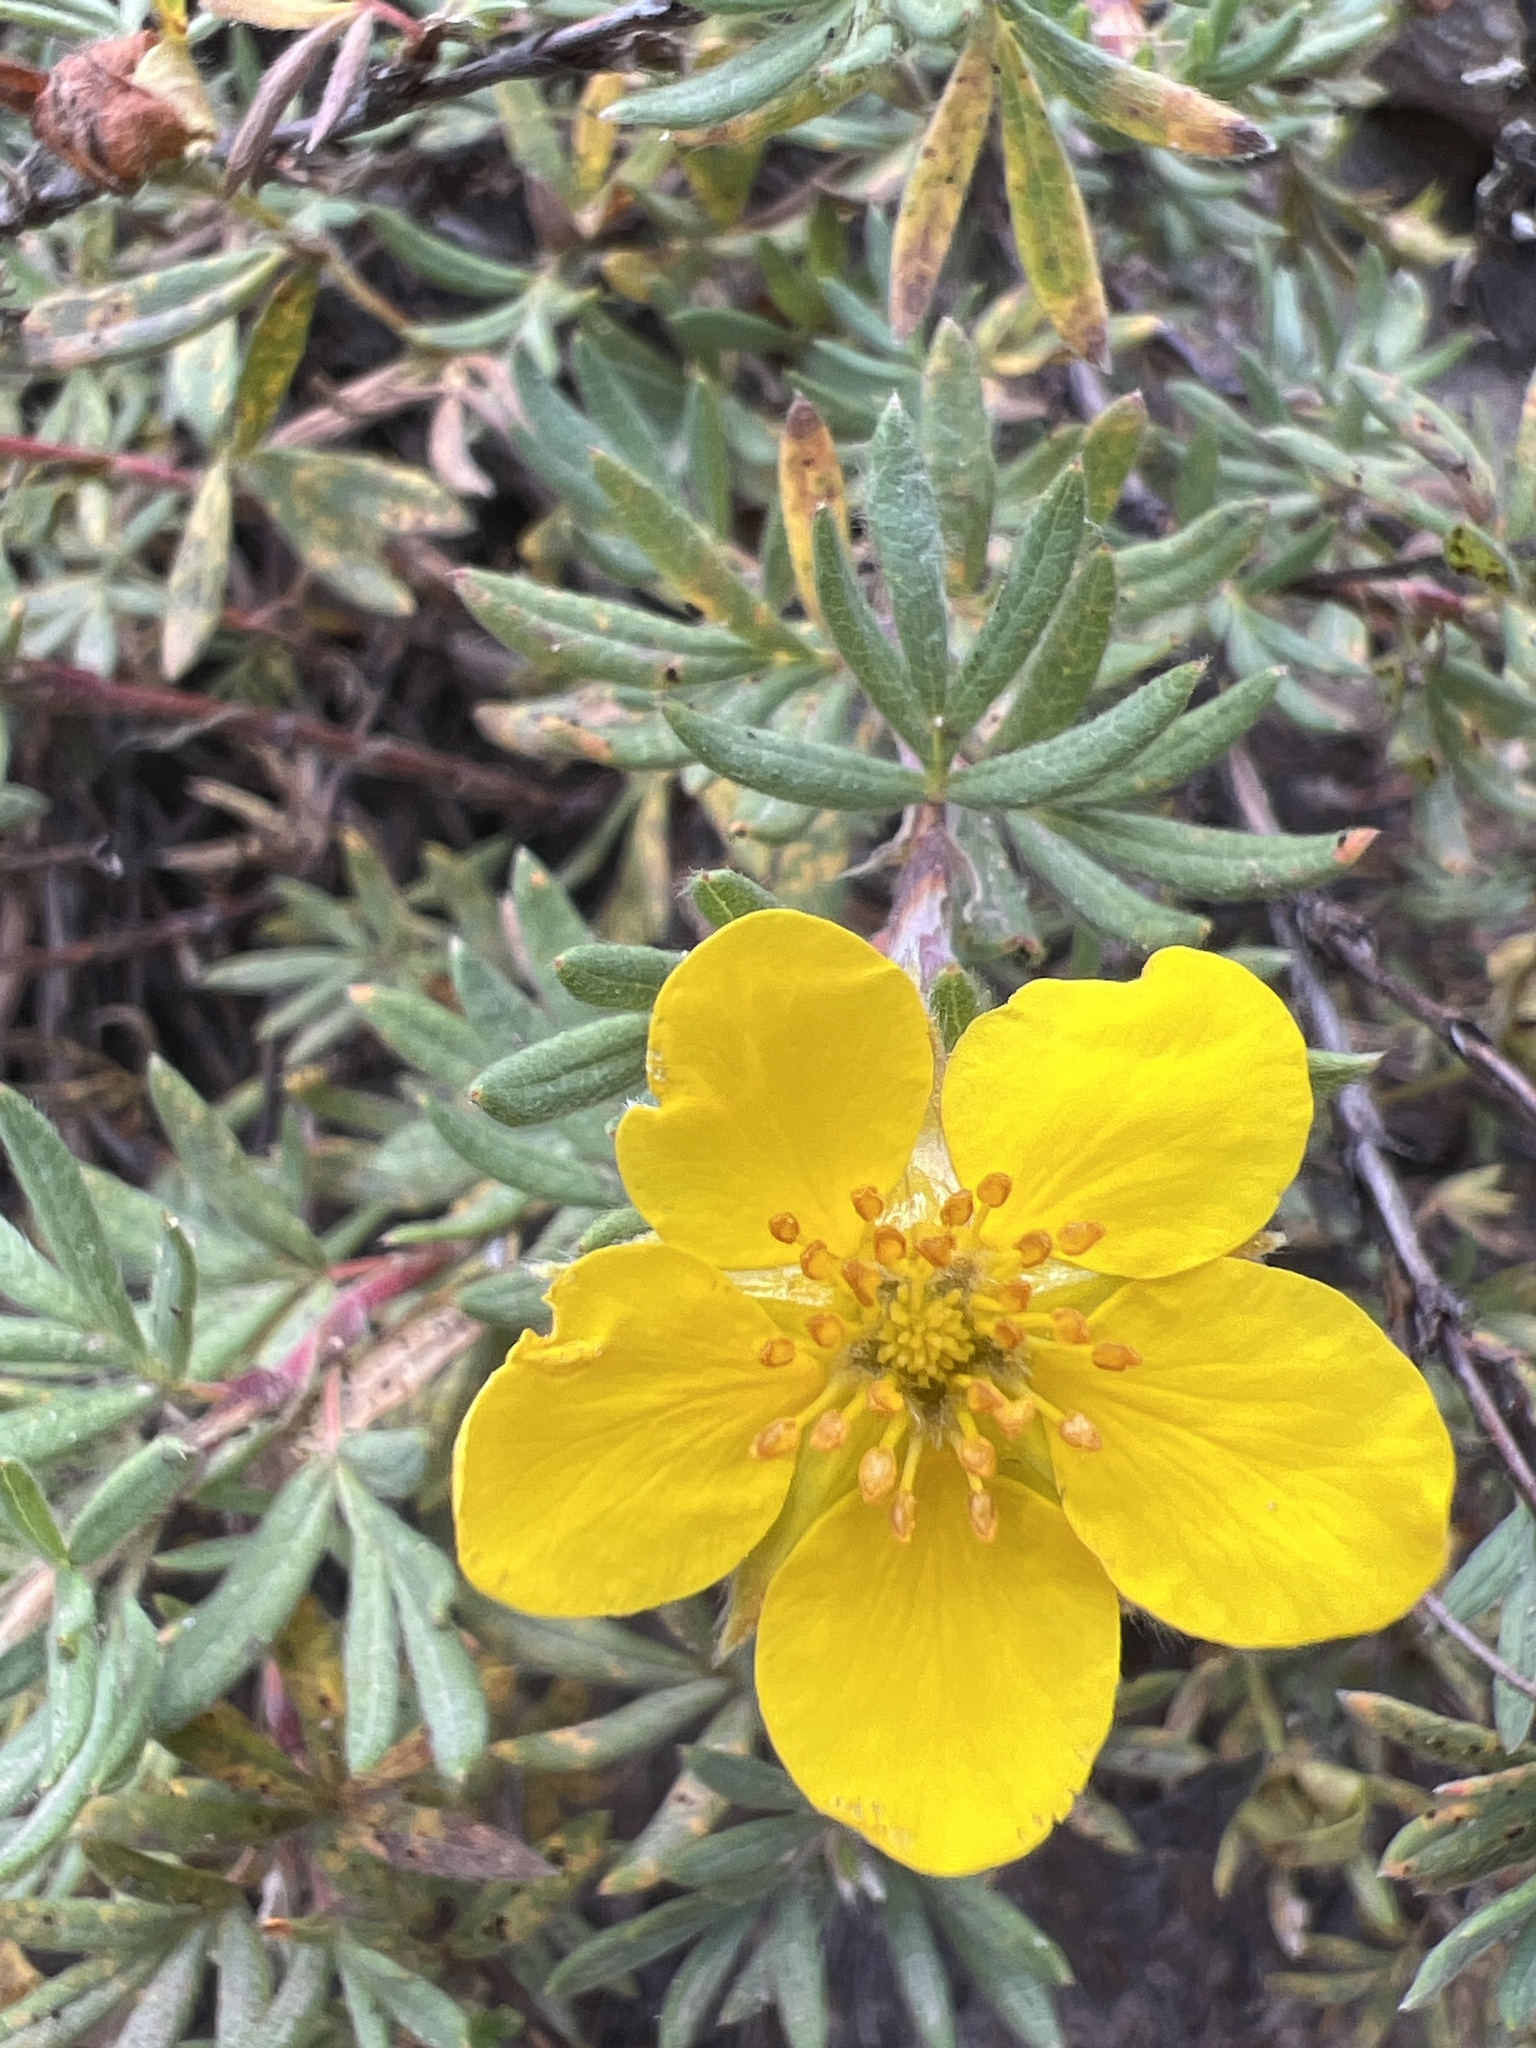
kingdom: Plantae
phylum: Tracheophyta
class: Magnoliopsida
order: Rosales
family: Rosaceae
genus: Dasiphora
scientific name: Dasiphora fruticosa
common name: Shrubby cinquefoil
